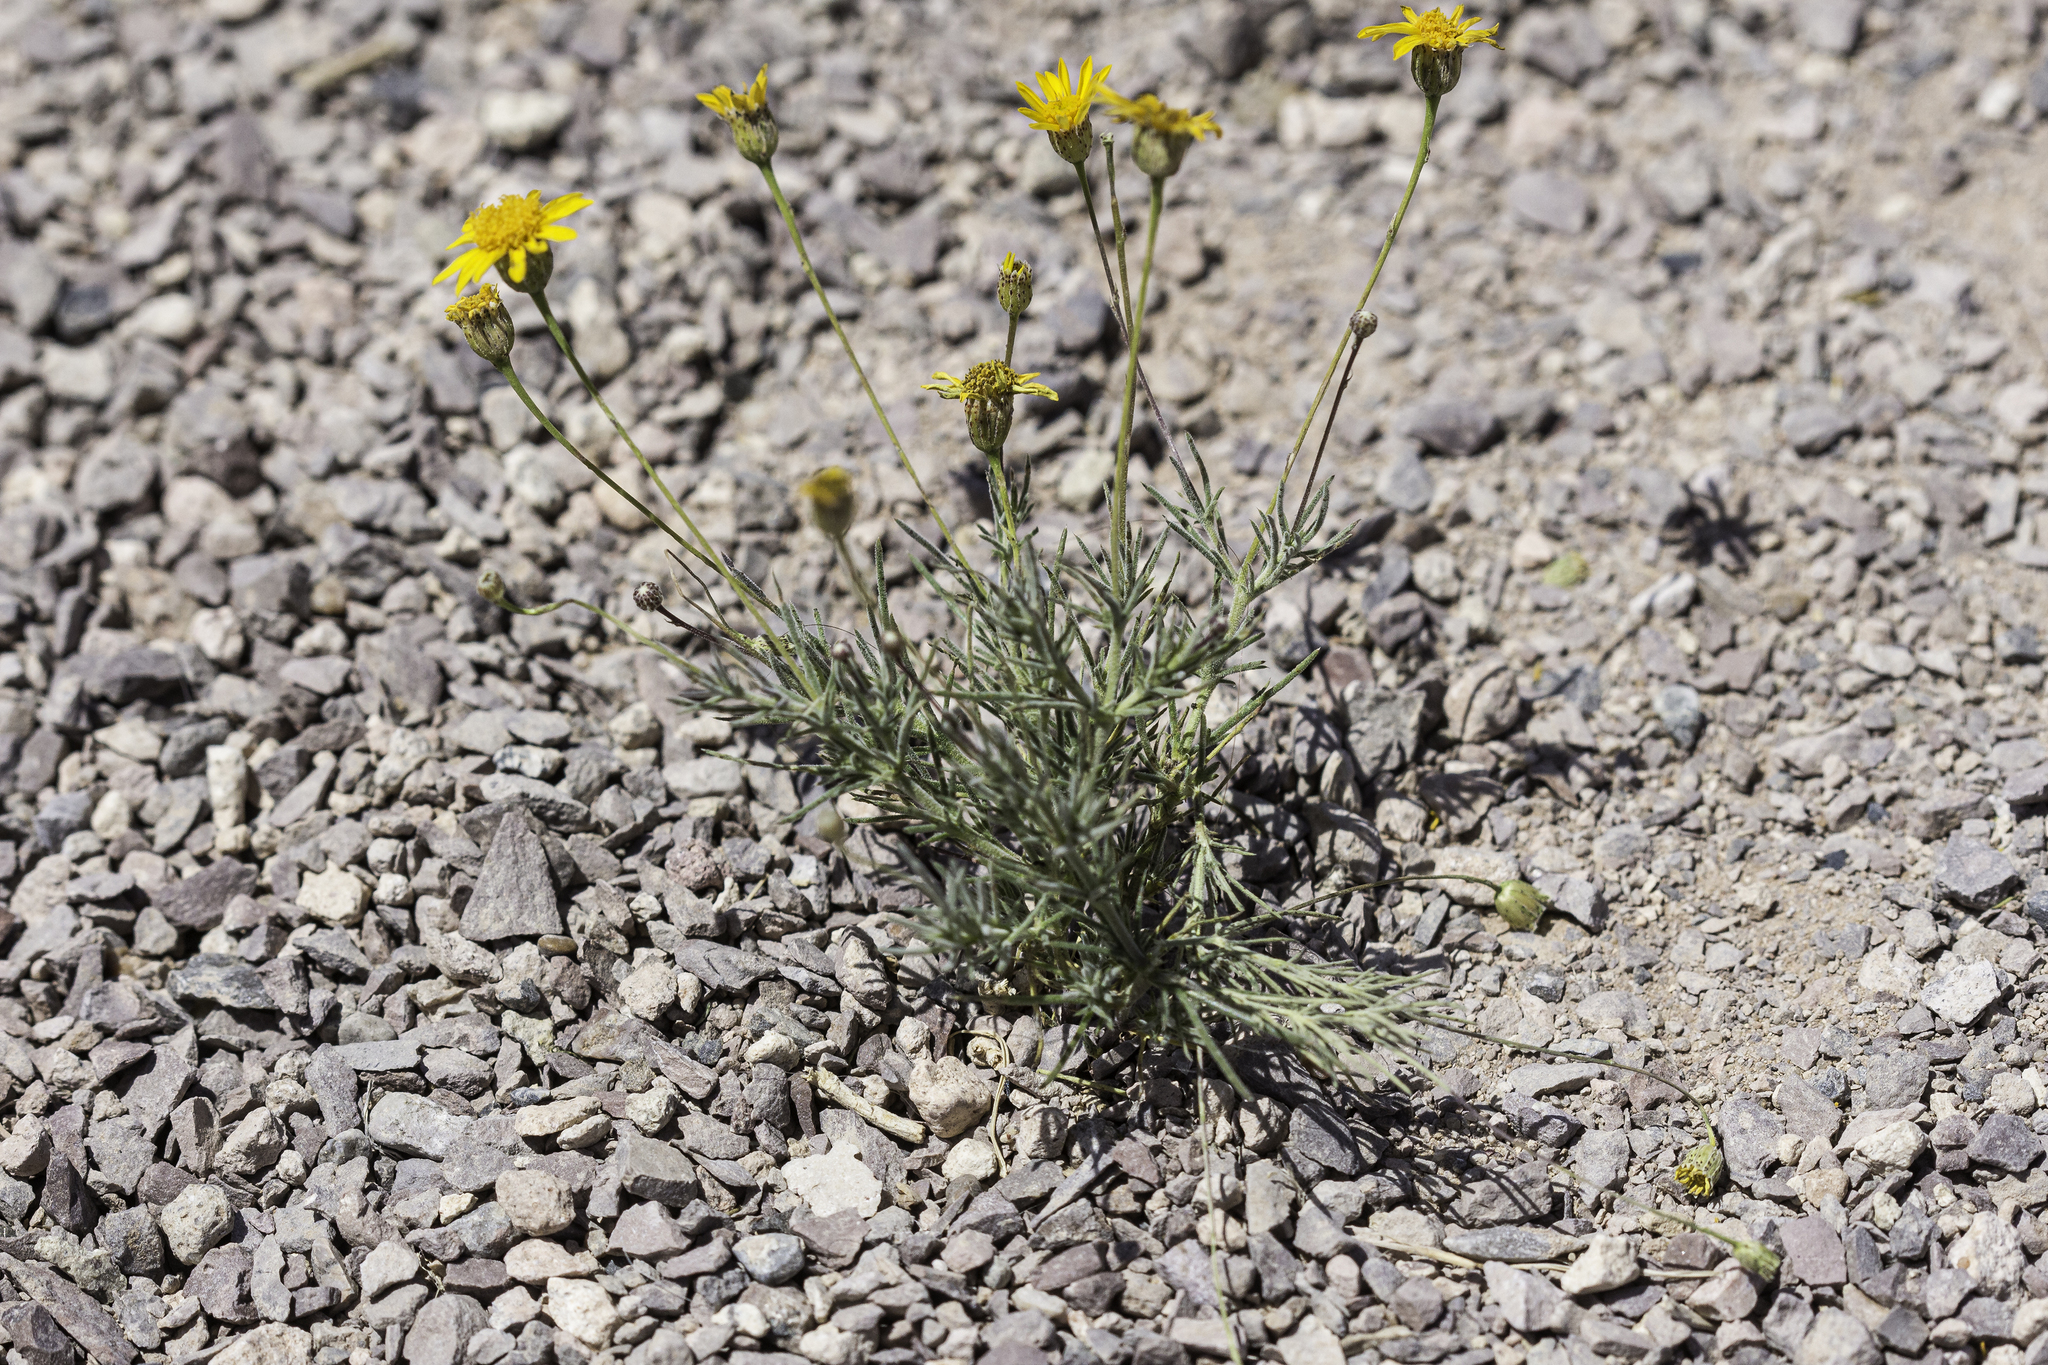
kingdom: Plantae
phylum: Tracheophyta
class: Magnoliopsida
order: Asterales
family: Asteraceae
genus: Thymophylla
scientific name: Thymophylla pentachaeta
